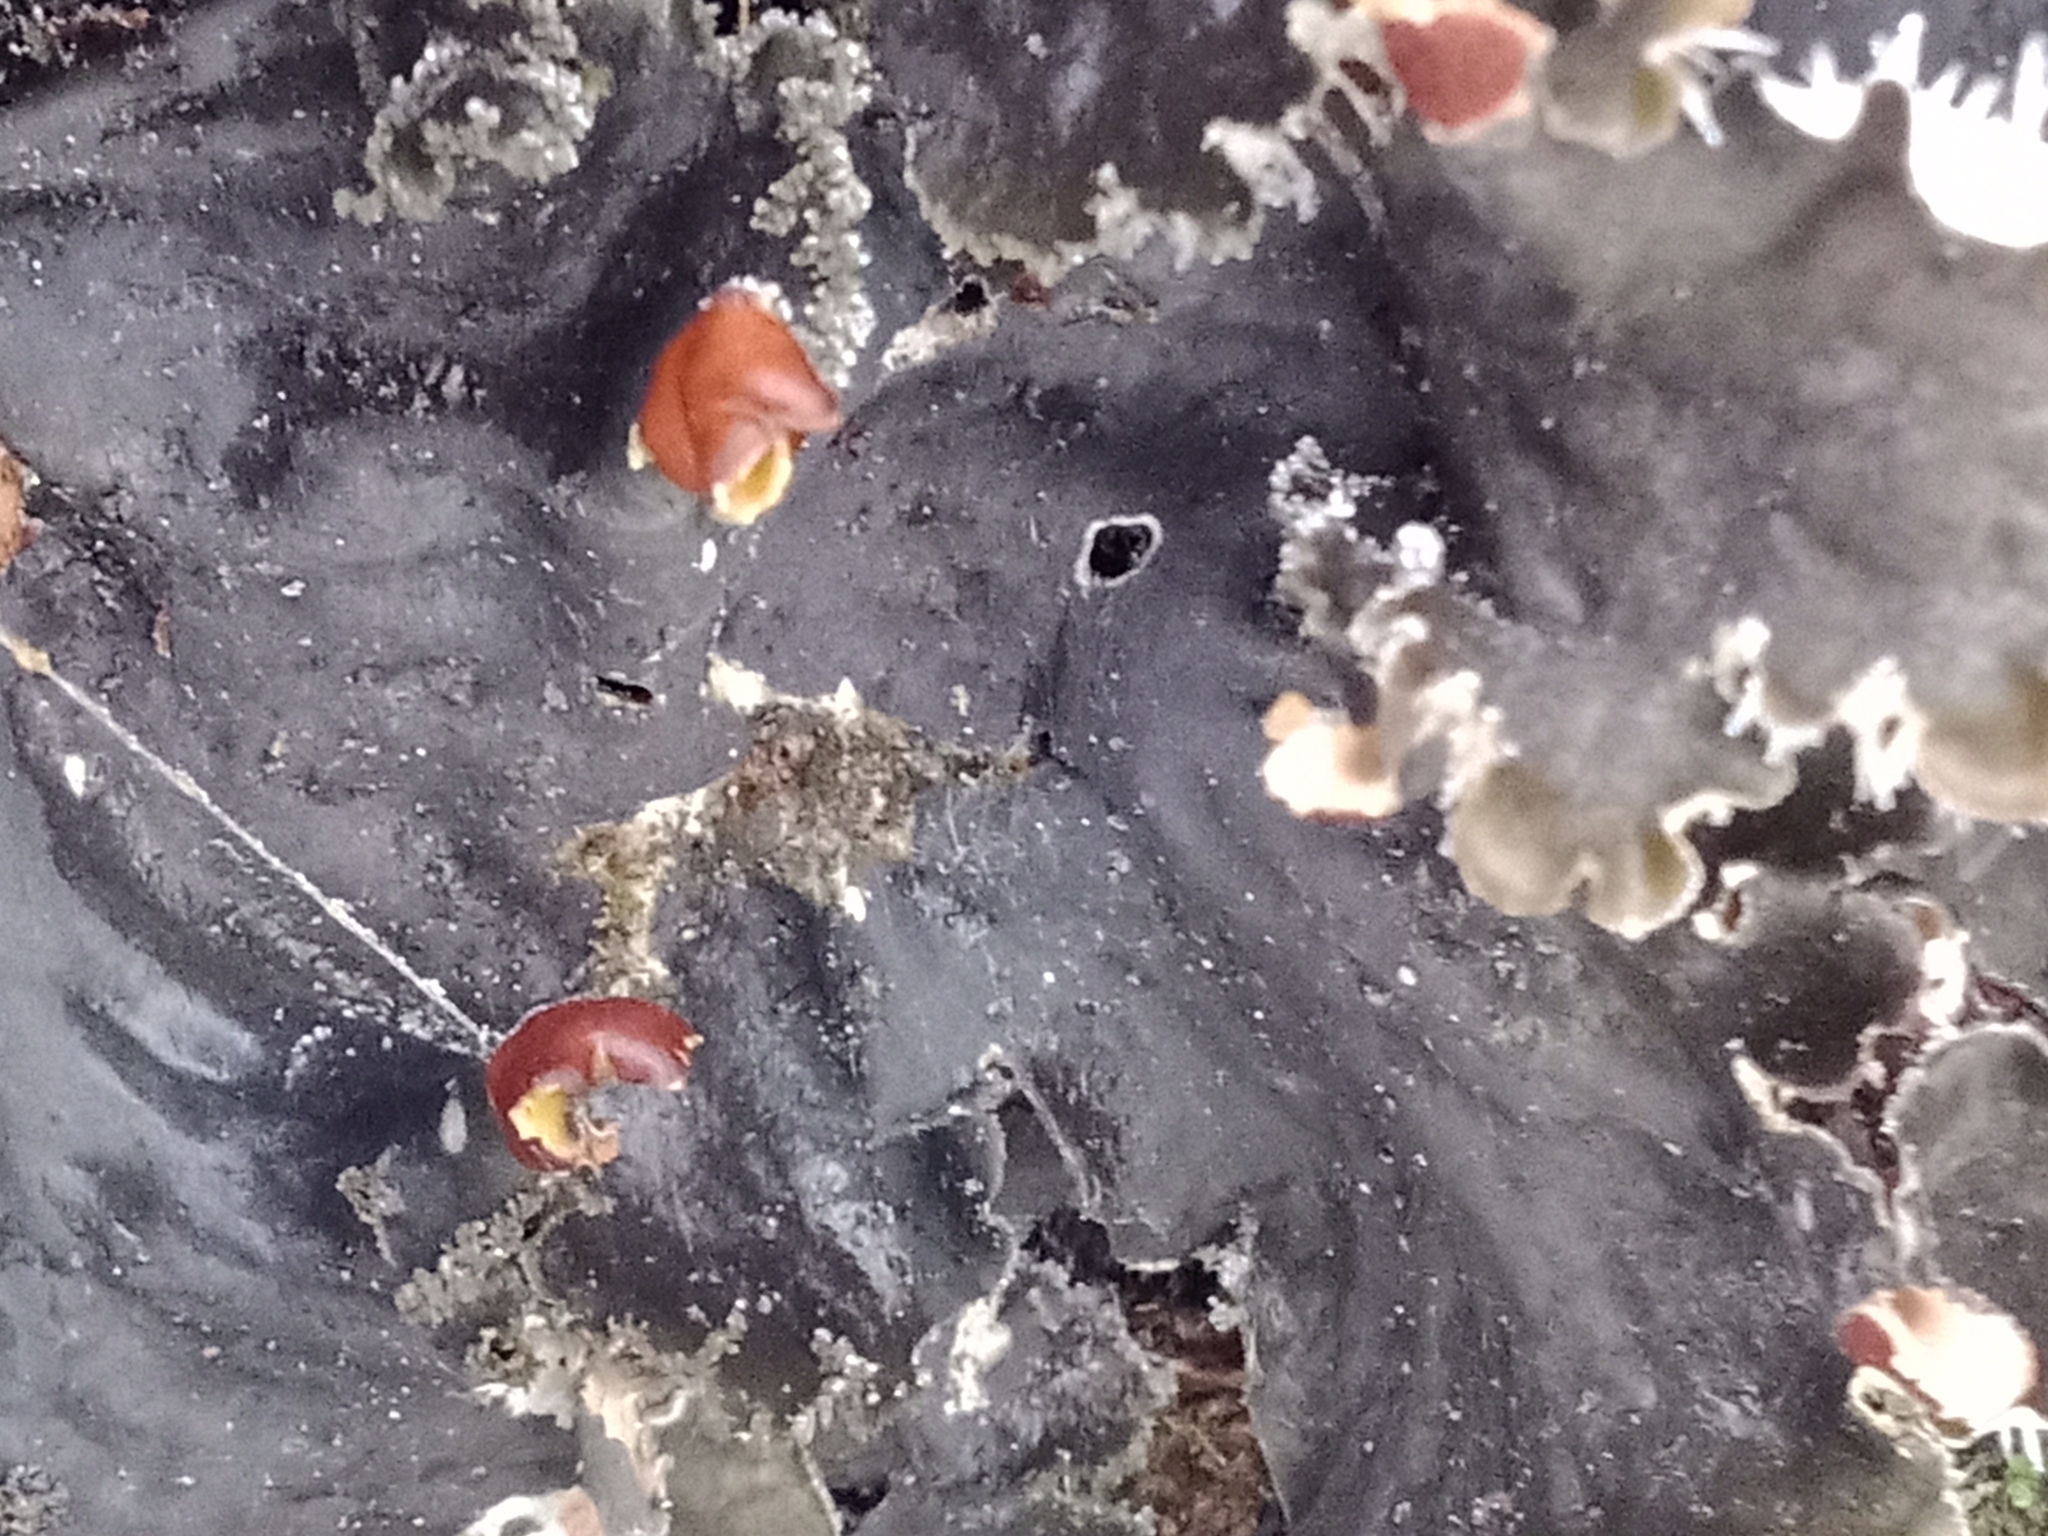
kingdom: Fungi
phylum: Ascomycota
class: Lecanoromycetes
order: Peltigerales
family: Peltigeraceae
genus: Peltigera
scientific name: Peltigera praetextata
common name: Scaly dog-lichen
